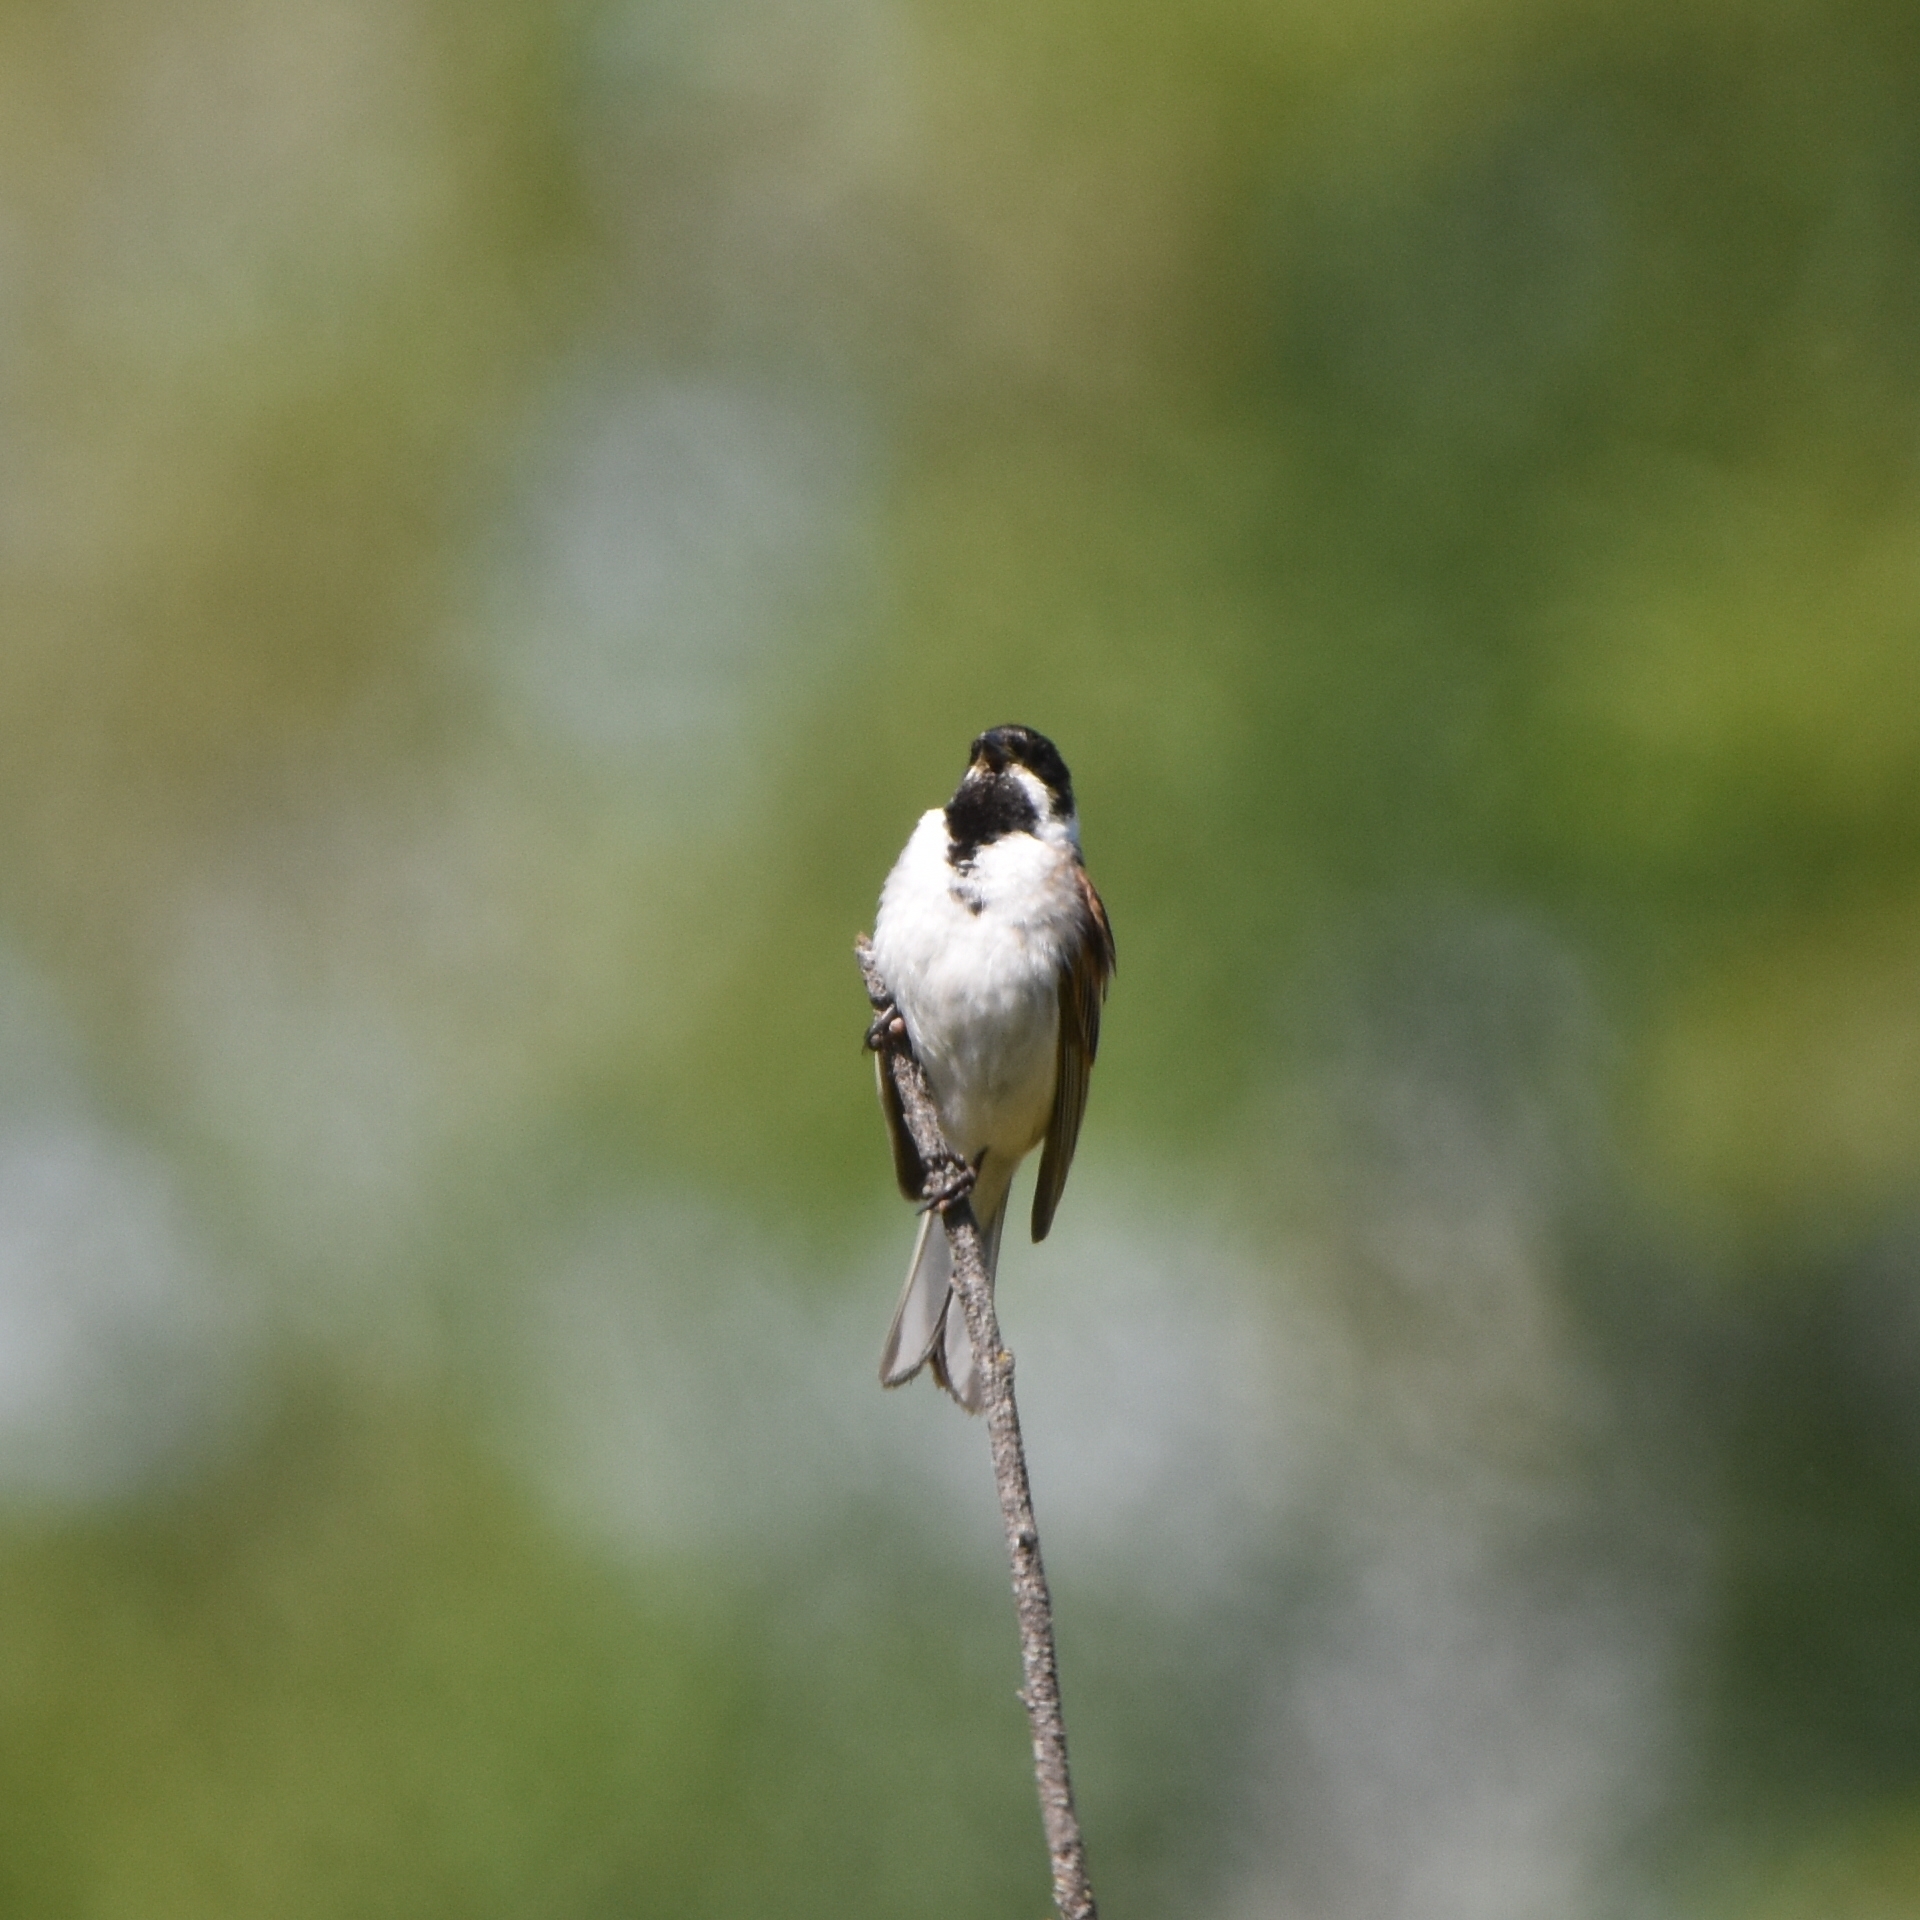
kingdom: Animalia
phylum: Chordata
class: Aves
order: Passeriformes
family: Emberizidae
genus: Emberiza
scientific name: Emberiza schoeniclus
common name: Reed bunting
